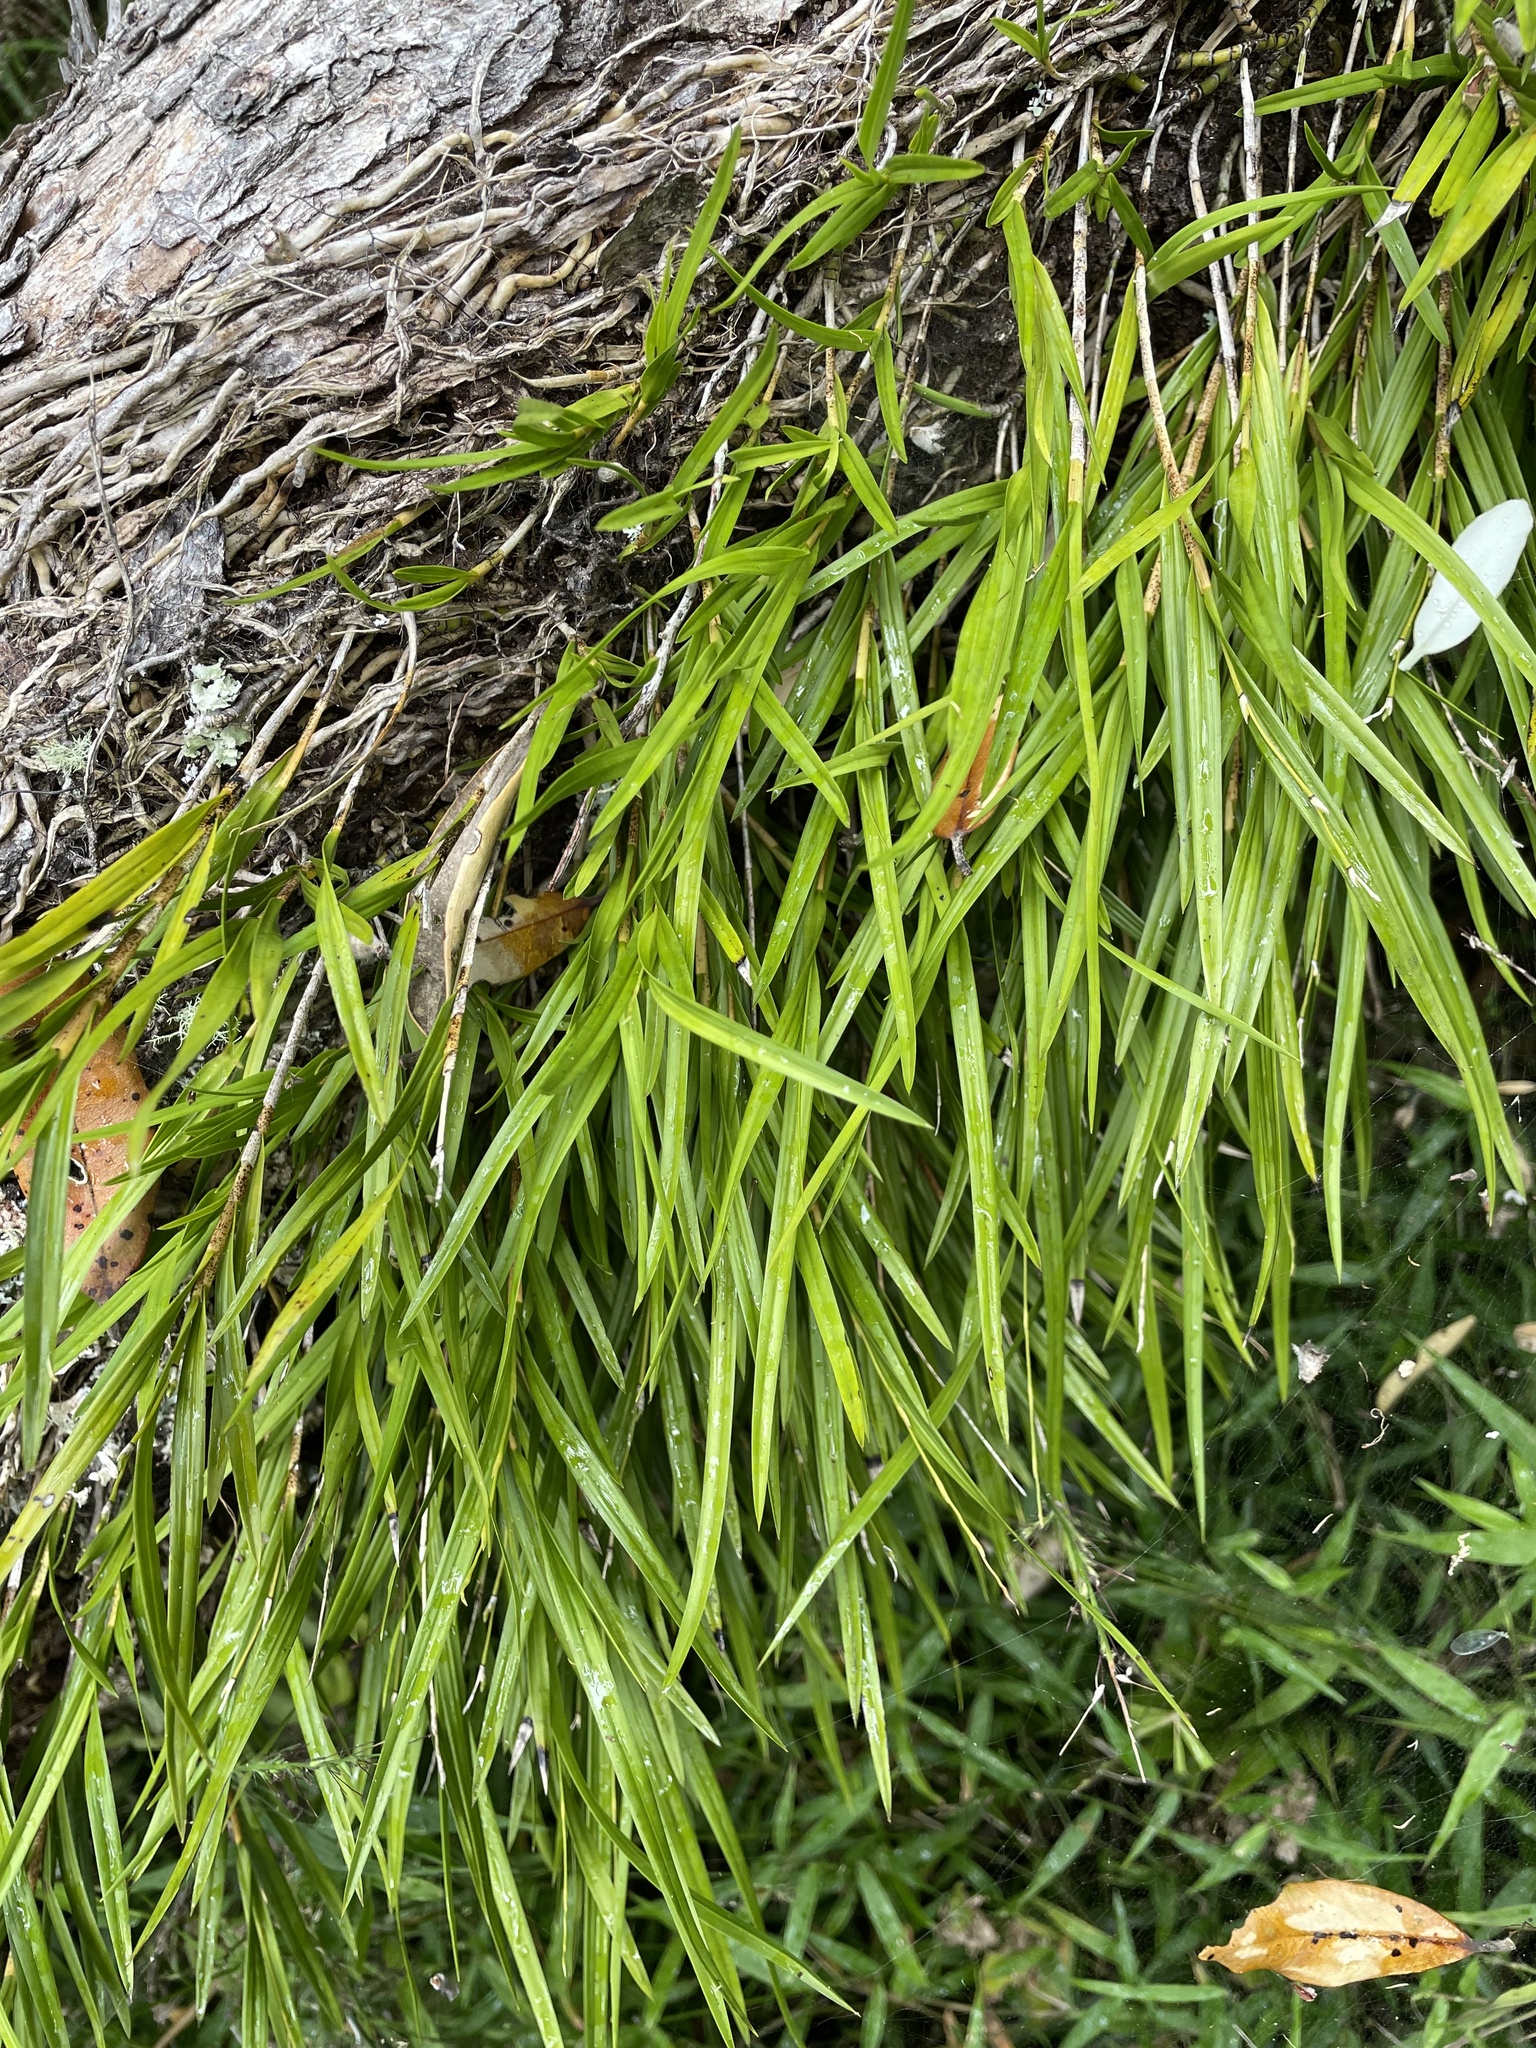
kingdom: Plantae
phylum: Tracheophyta
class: Liliopsida
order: Asparagales
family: Orchidaceae
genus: Earina
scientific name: Earina mucronata
